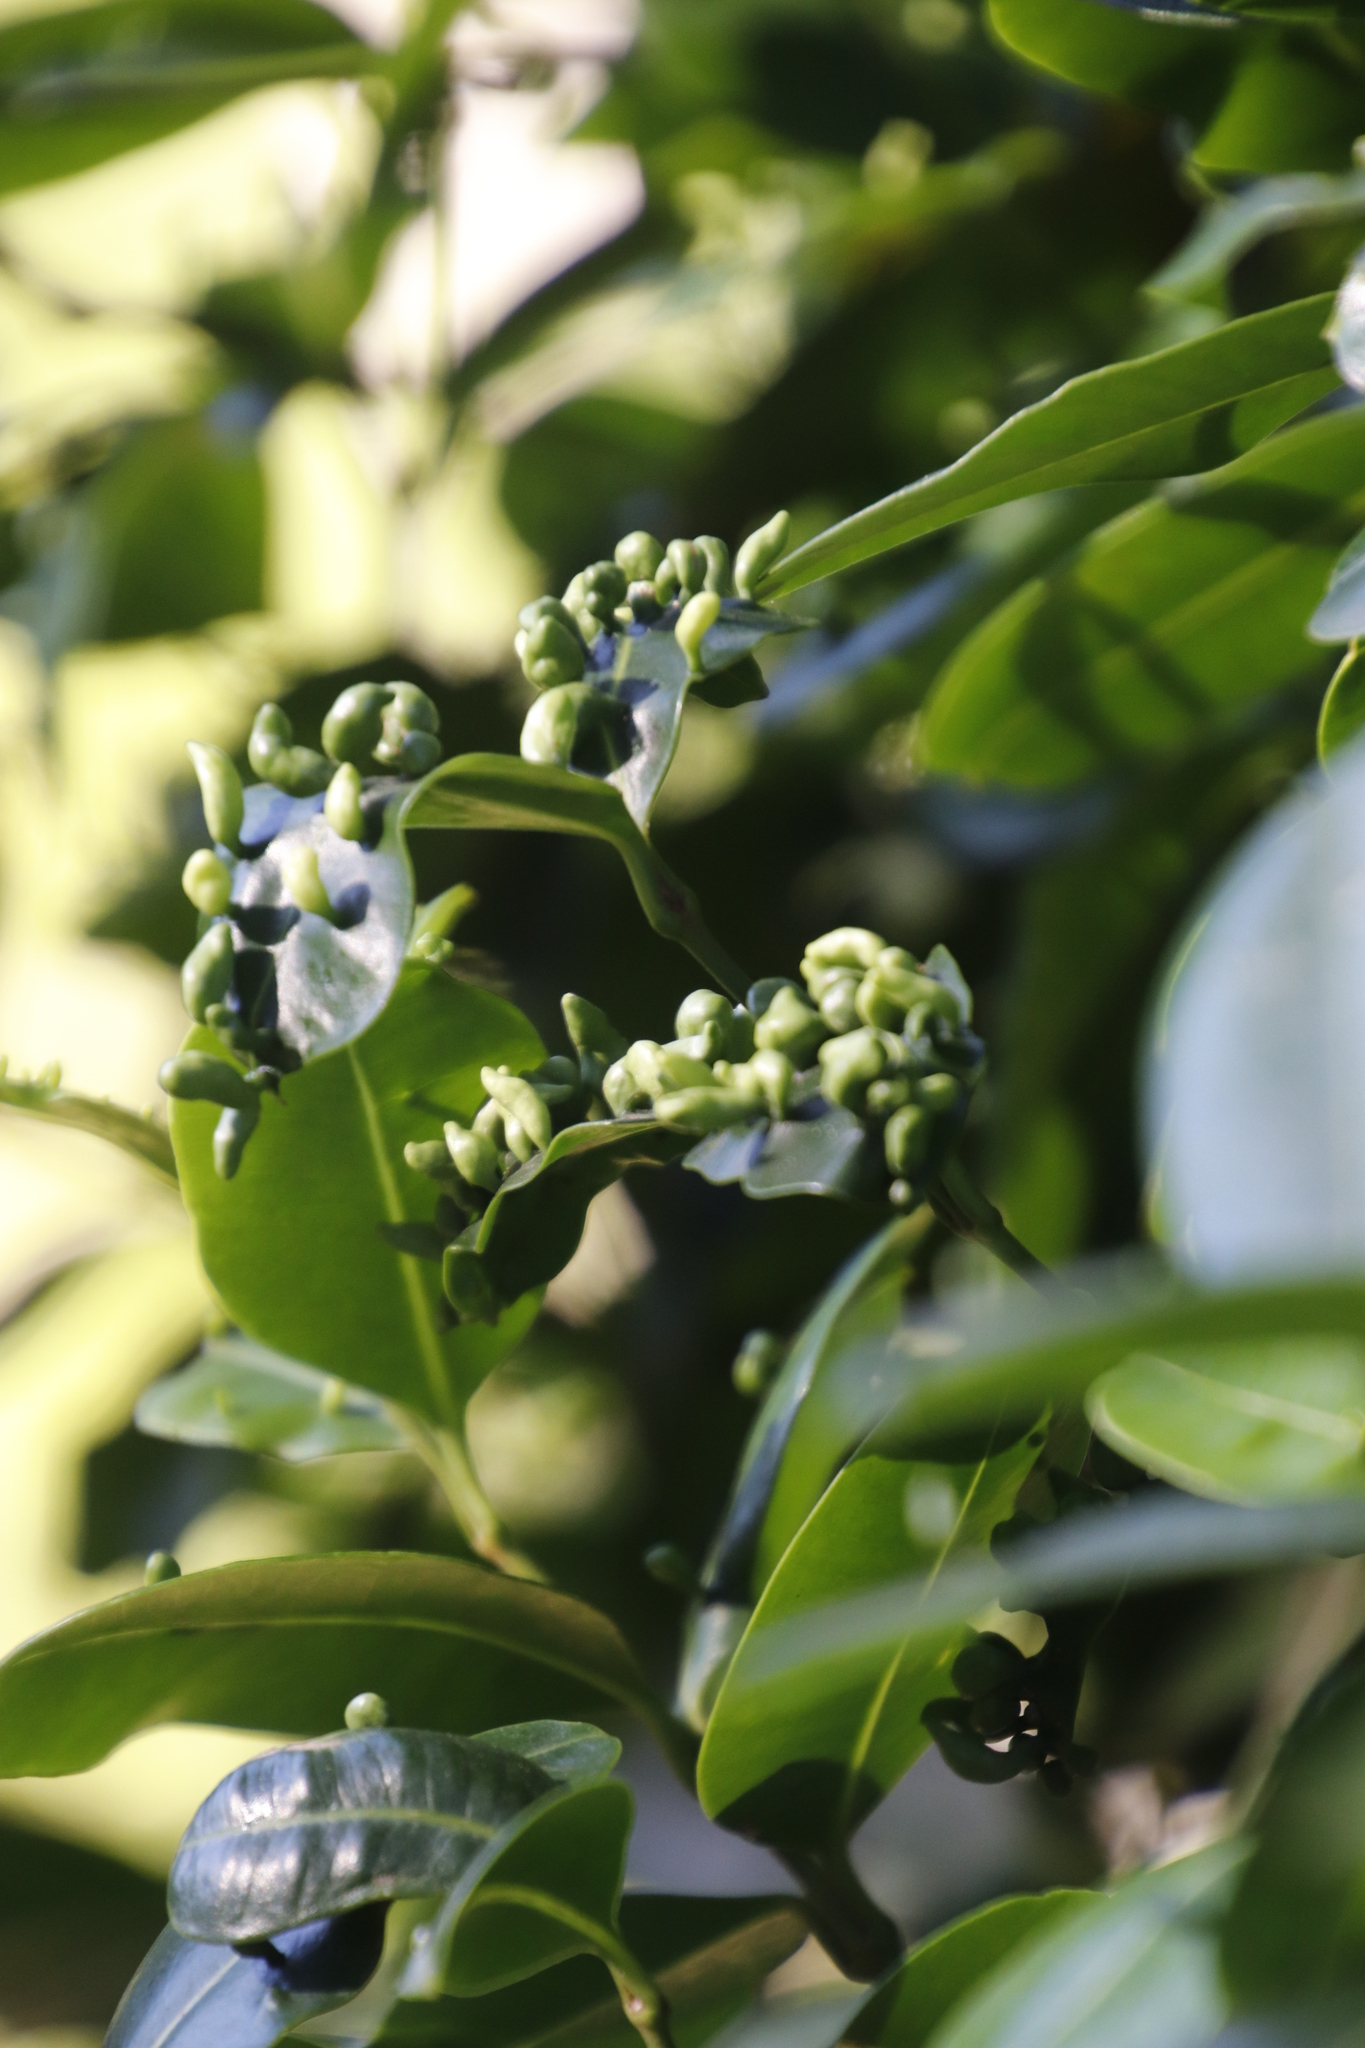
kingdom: Plantae
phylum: Tracheophyta
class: Magnoliopsida
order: Gentianales
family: Apocynaceae
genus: Secamone
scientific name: Secamone alpini
